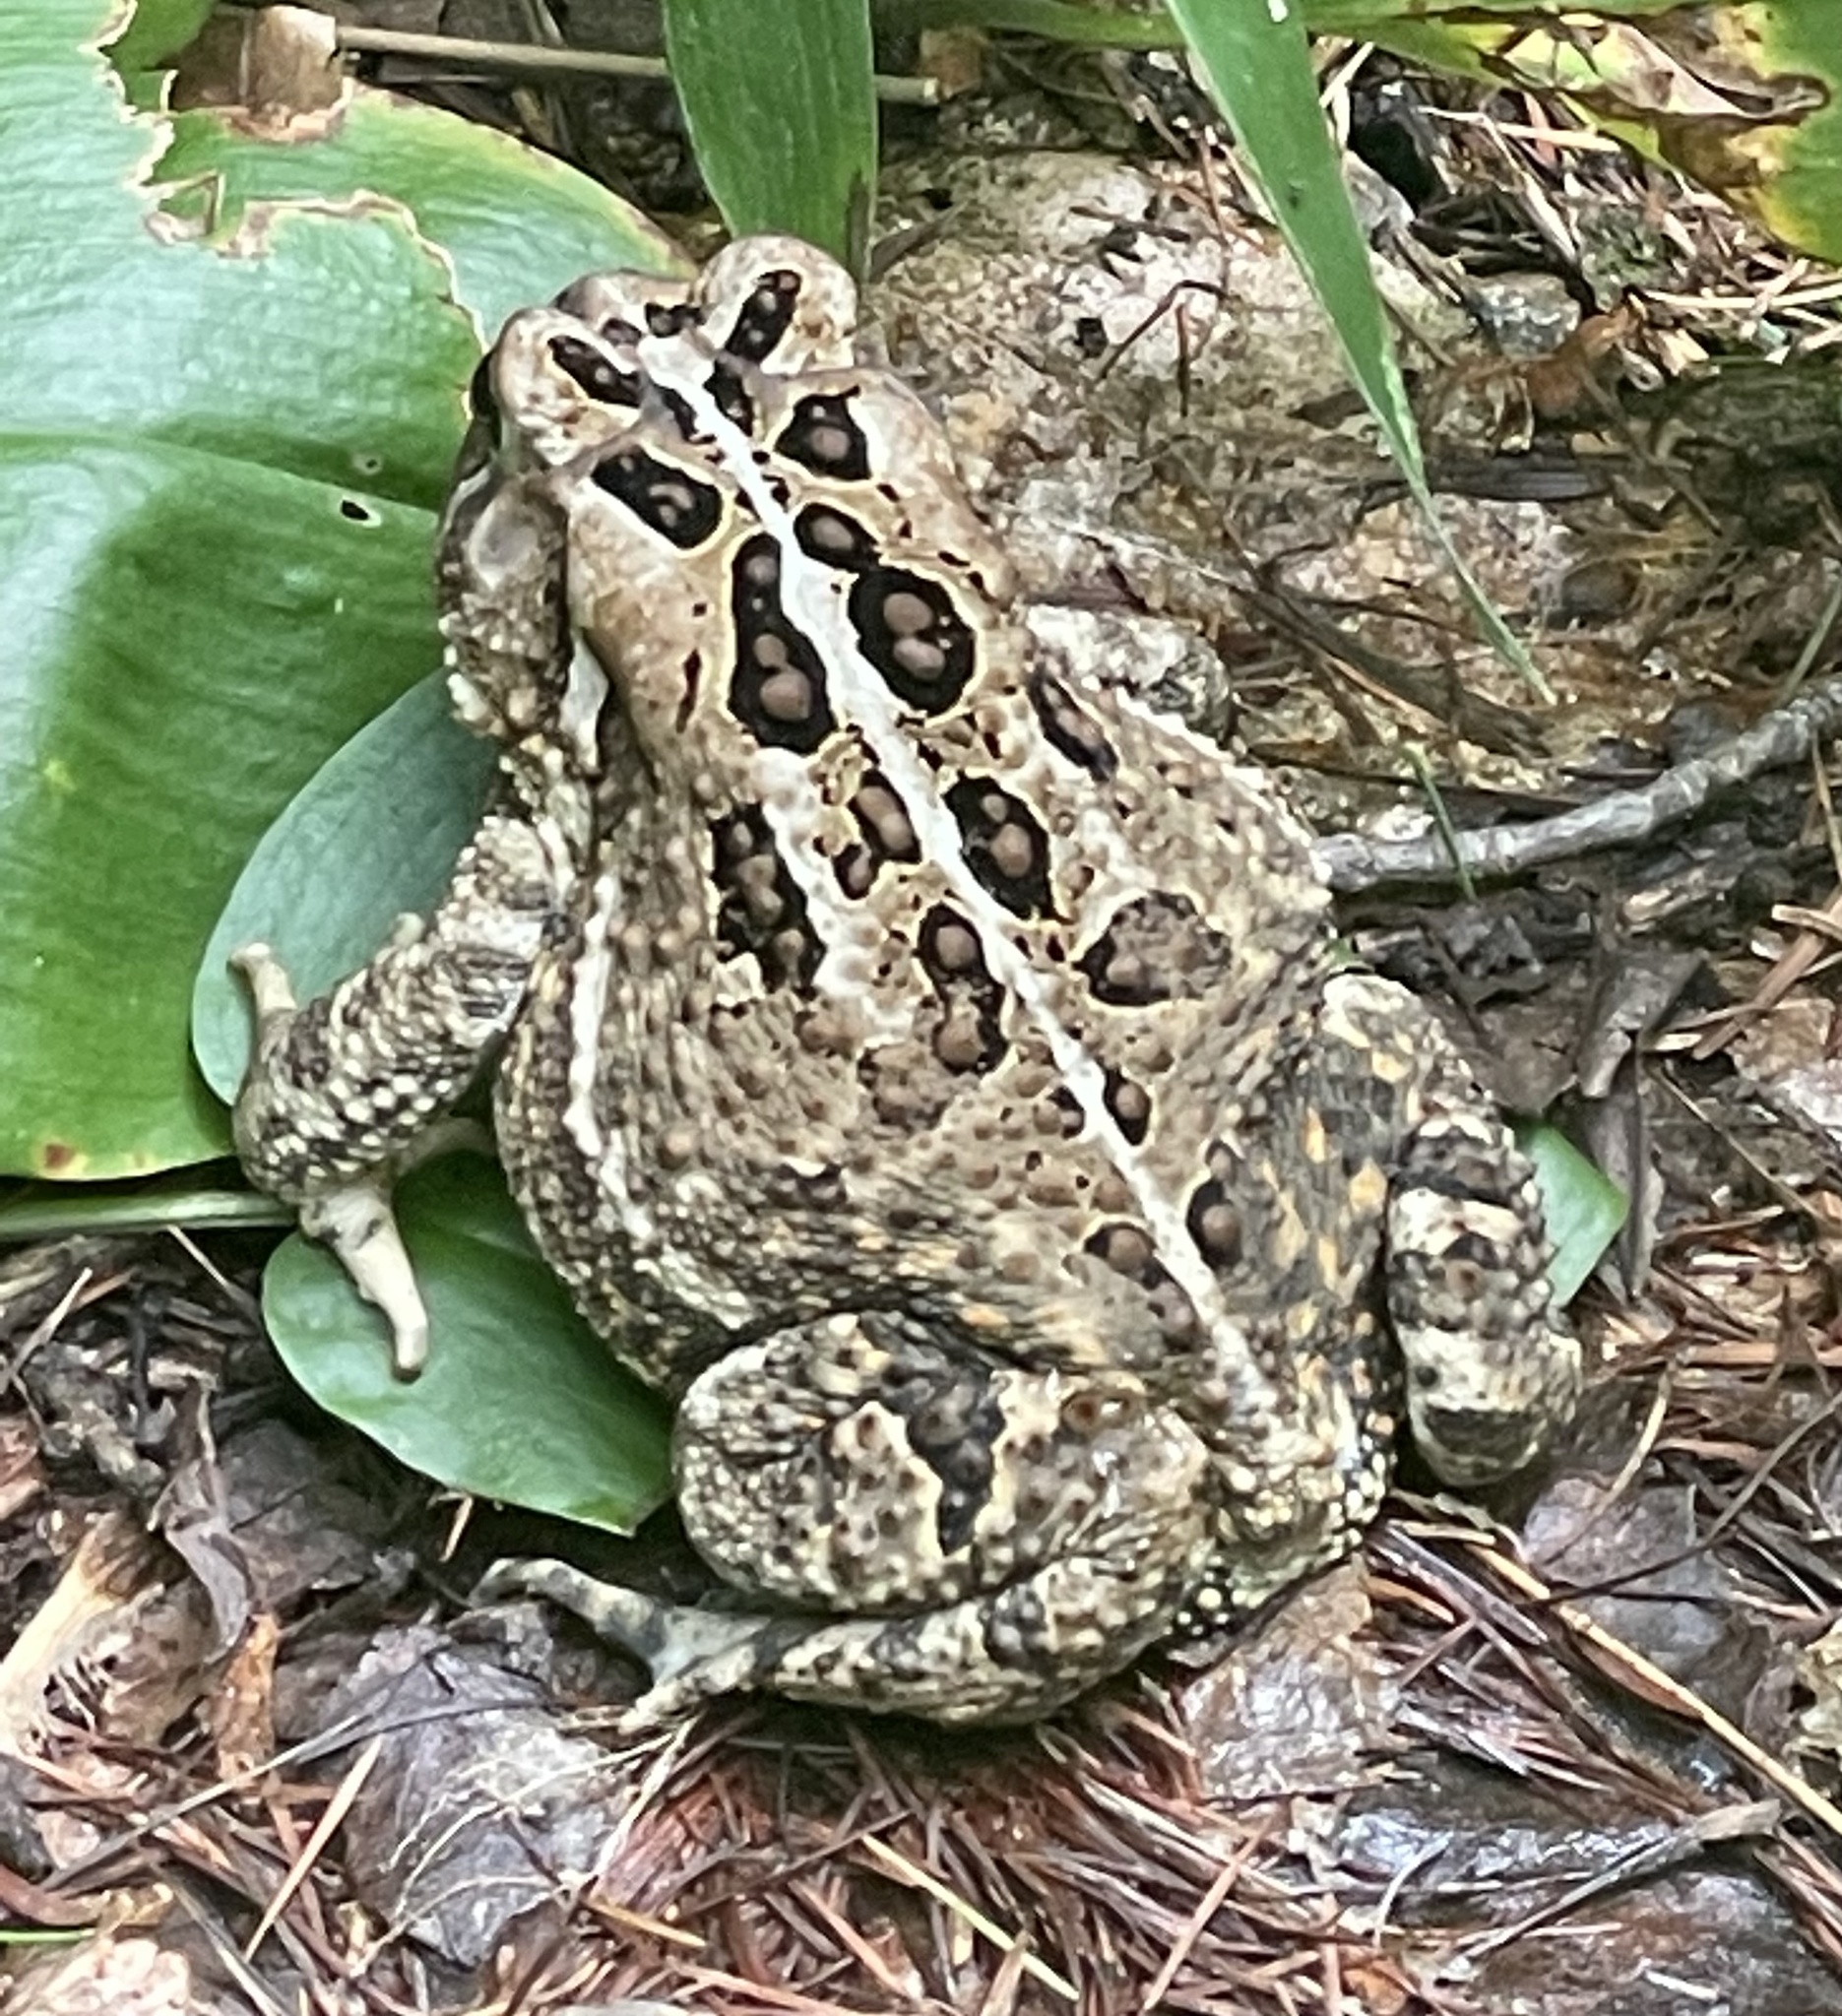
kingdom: Animalia
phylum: Chordata
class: Amphibia
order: Anura
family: Bufonidae
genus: Anaxyrus
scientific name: Anaxyrus americanus
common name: American toad
